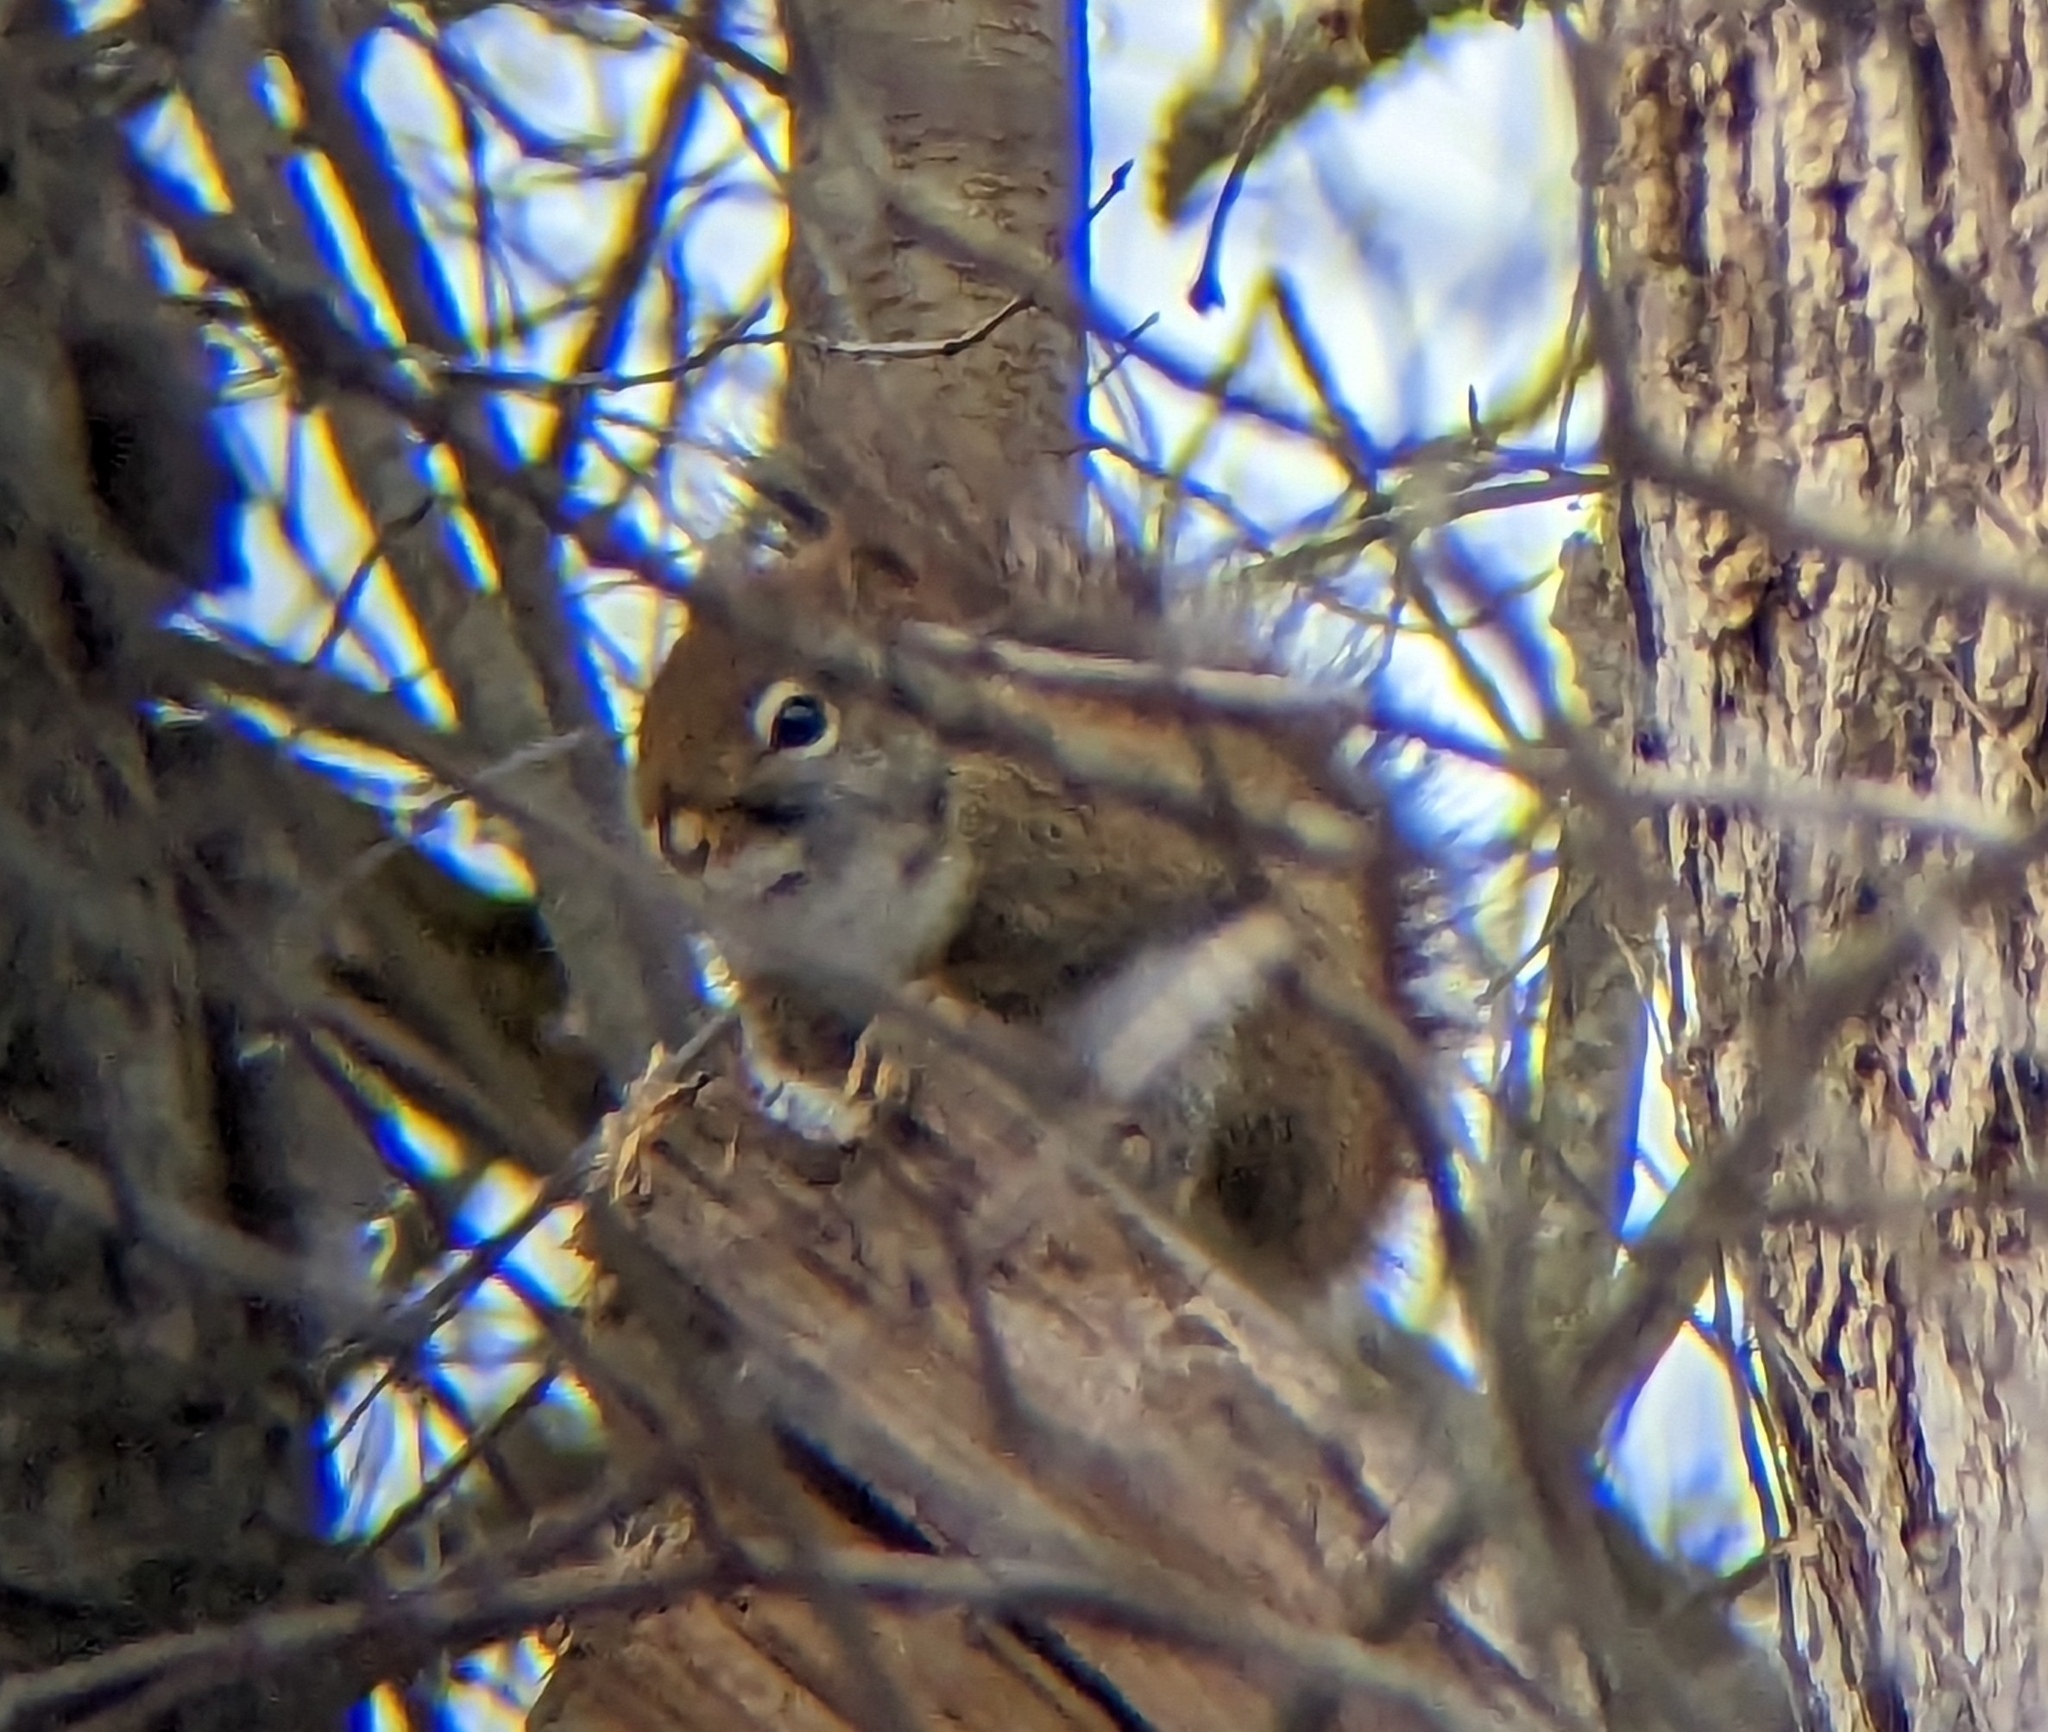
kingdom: Animalia
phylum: Chordata
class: Mammalia
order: Rodentia
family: Sciuridae
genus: Tamiasciurus
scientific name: Tamiasciurus hudsonicus
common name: Red squirrel
